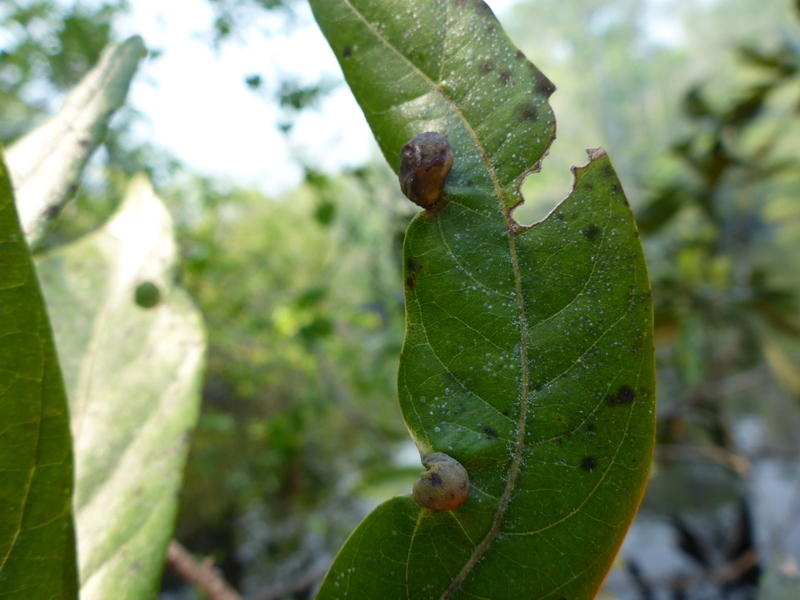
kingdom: Animalia
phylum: Arthropoda
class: Insecta
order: Hemiptera
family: Triozidae
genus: Trioza
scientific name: Trioza magnoliae
